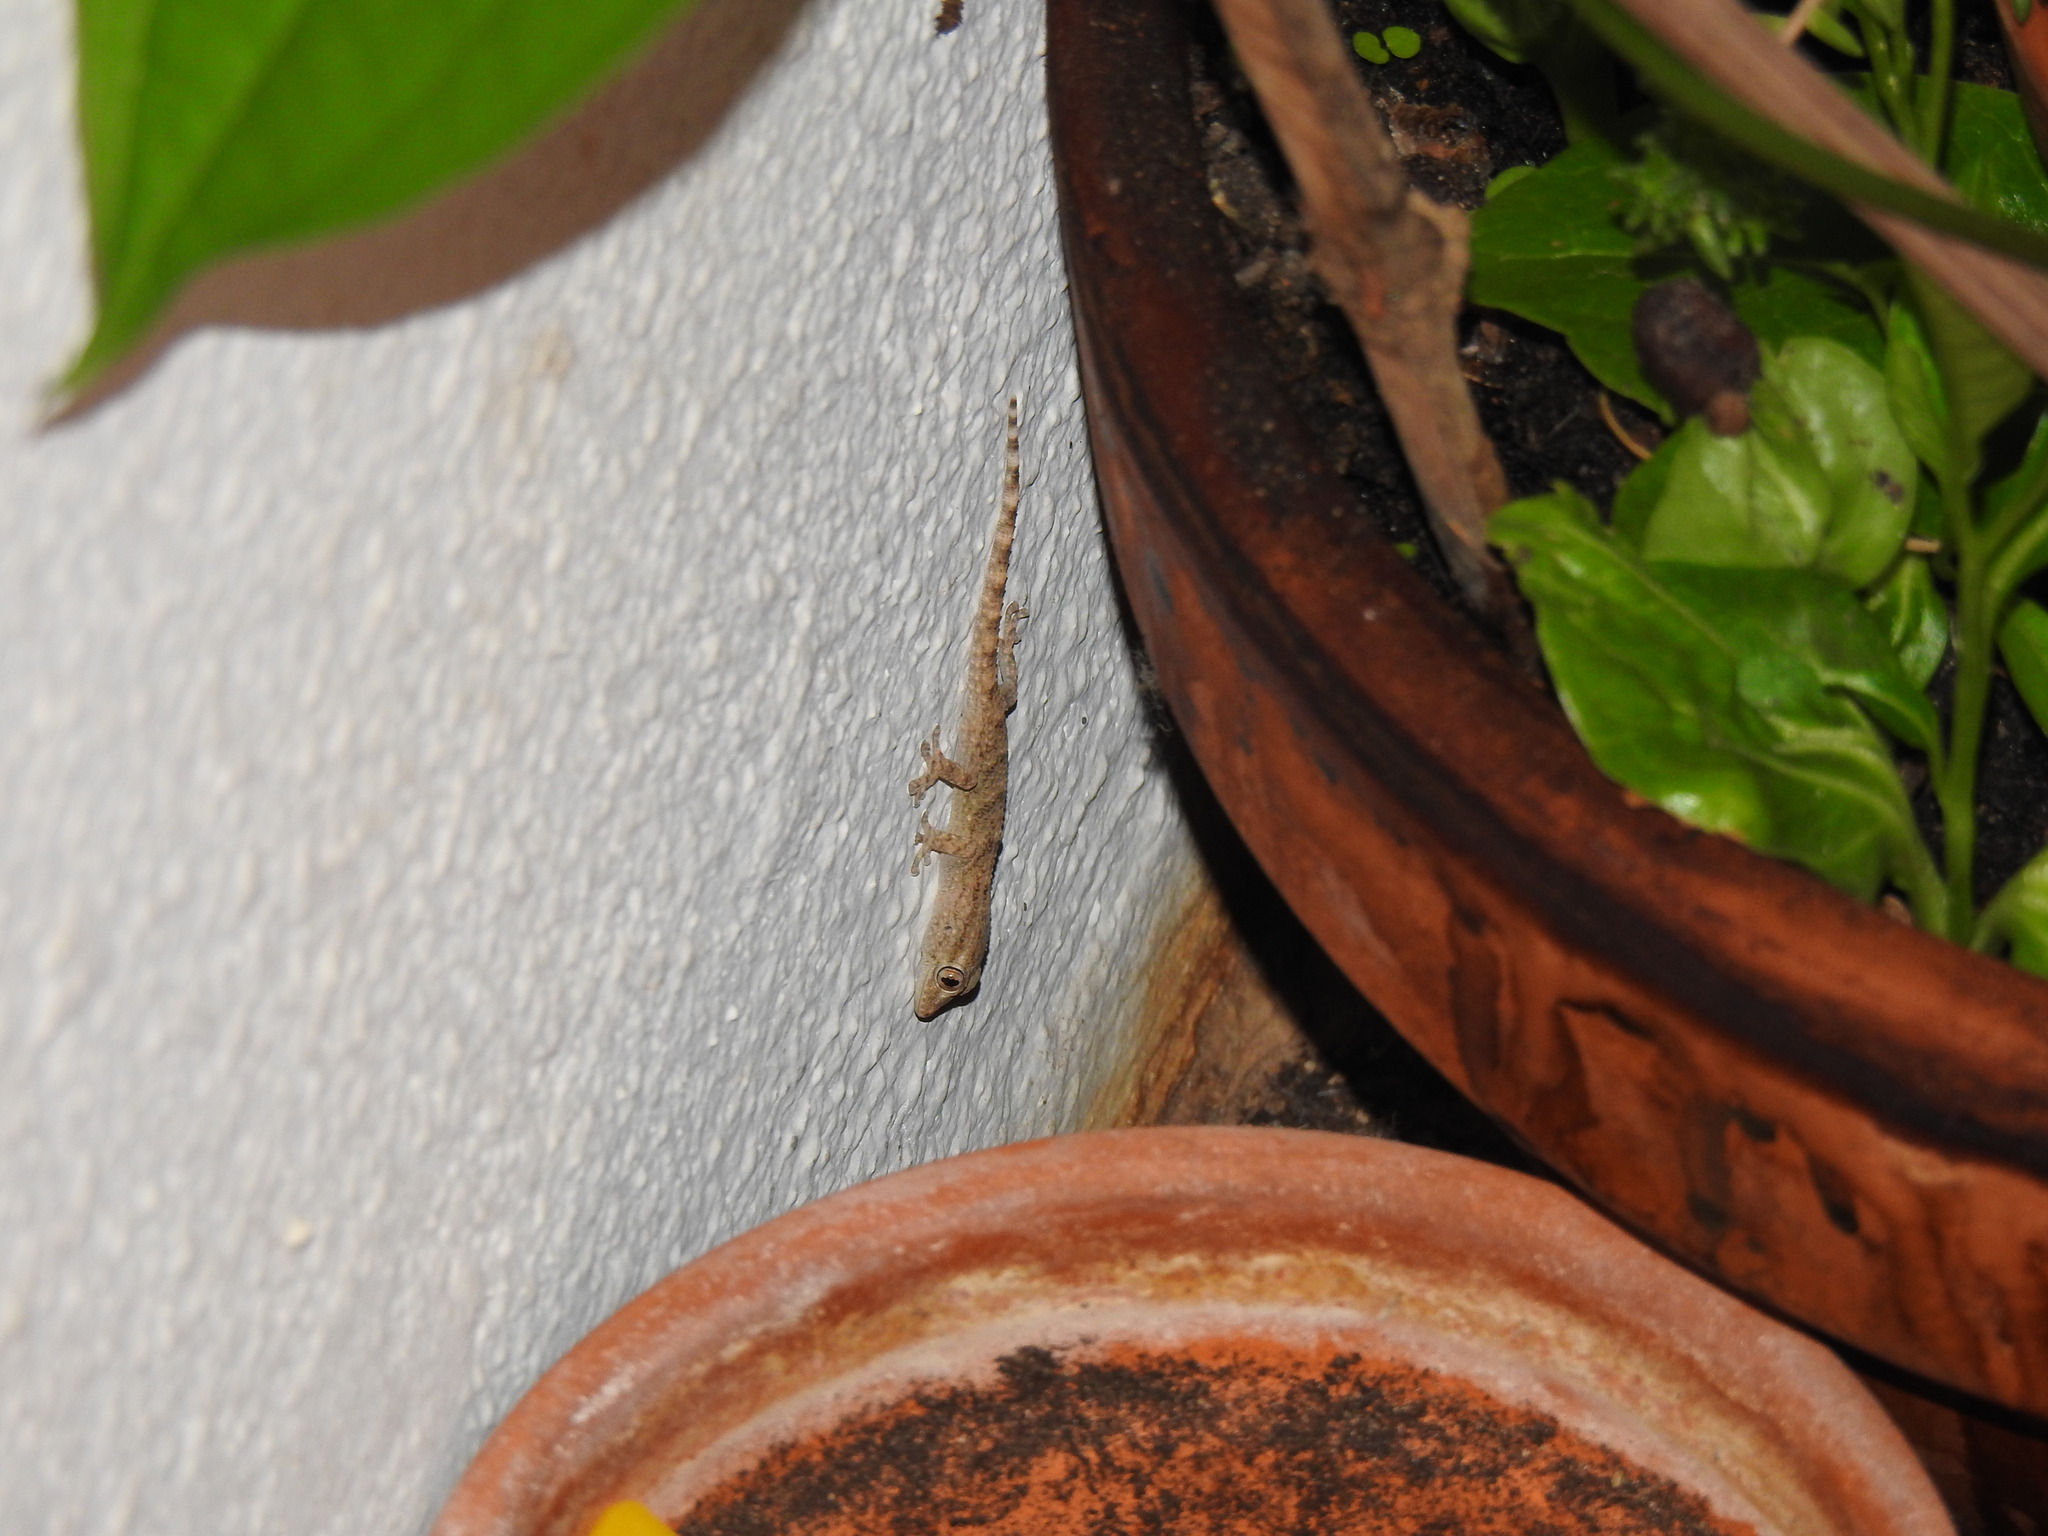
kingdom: Animalia
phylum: Chordata
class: Squamata
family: Phyllodactylidae
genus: Tarentola
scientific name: Tarentola mauritanica
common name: Moorish gecko
